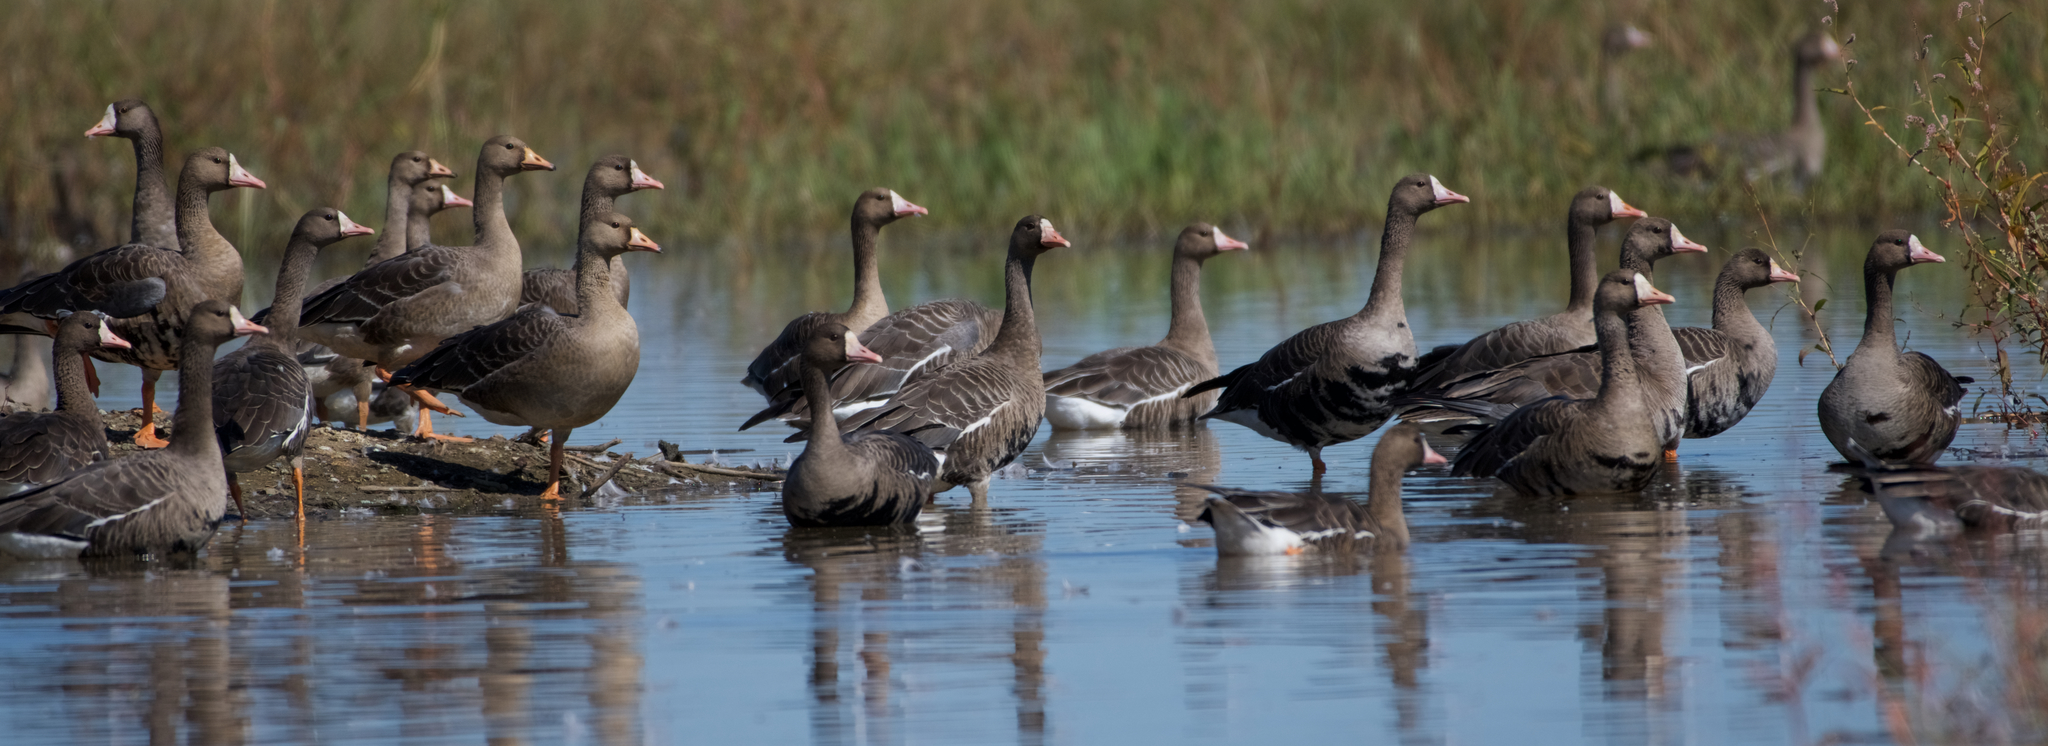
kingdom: Animalia
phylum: Chordata
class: Aves
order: Anseriformes
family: Anatidae
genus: Anser
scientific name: Anser albifrons
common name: Greater white-fronted goose
